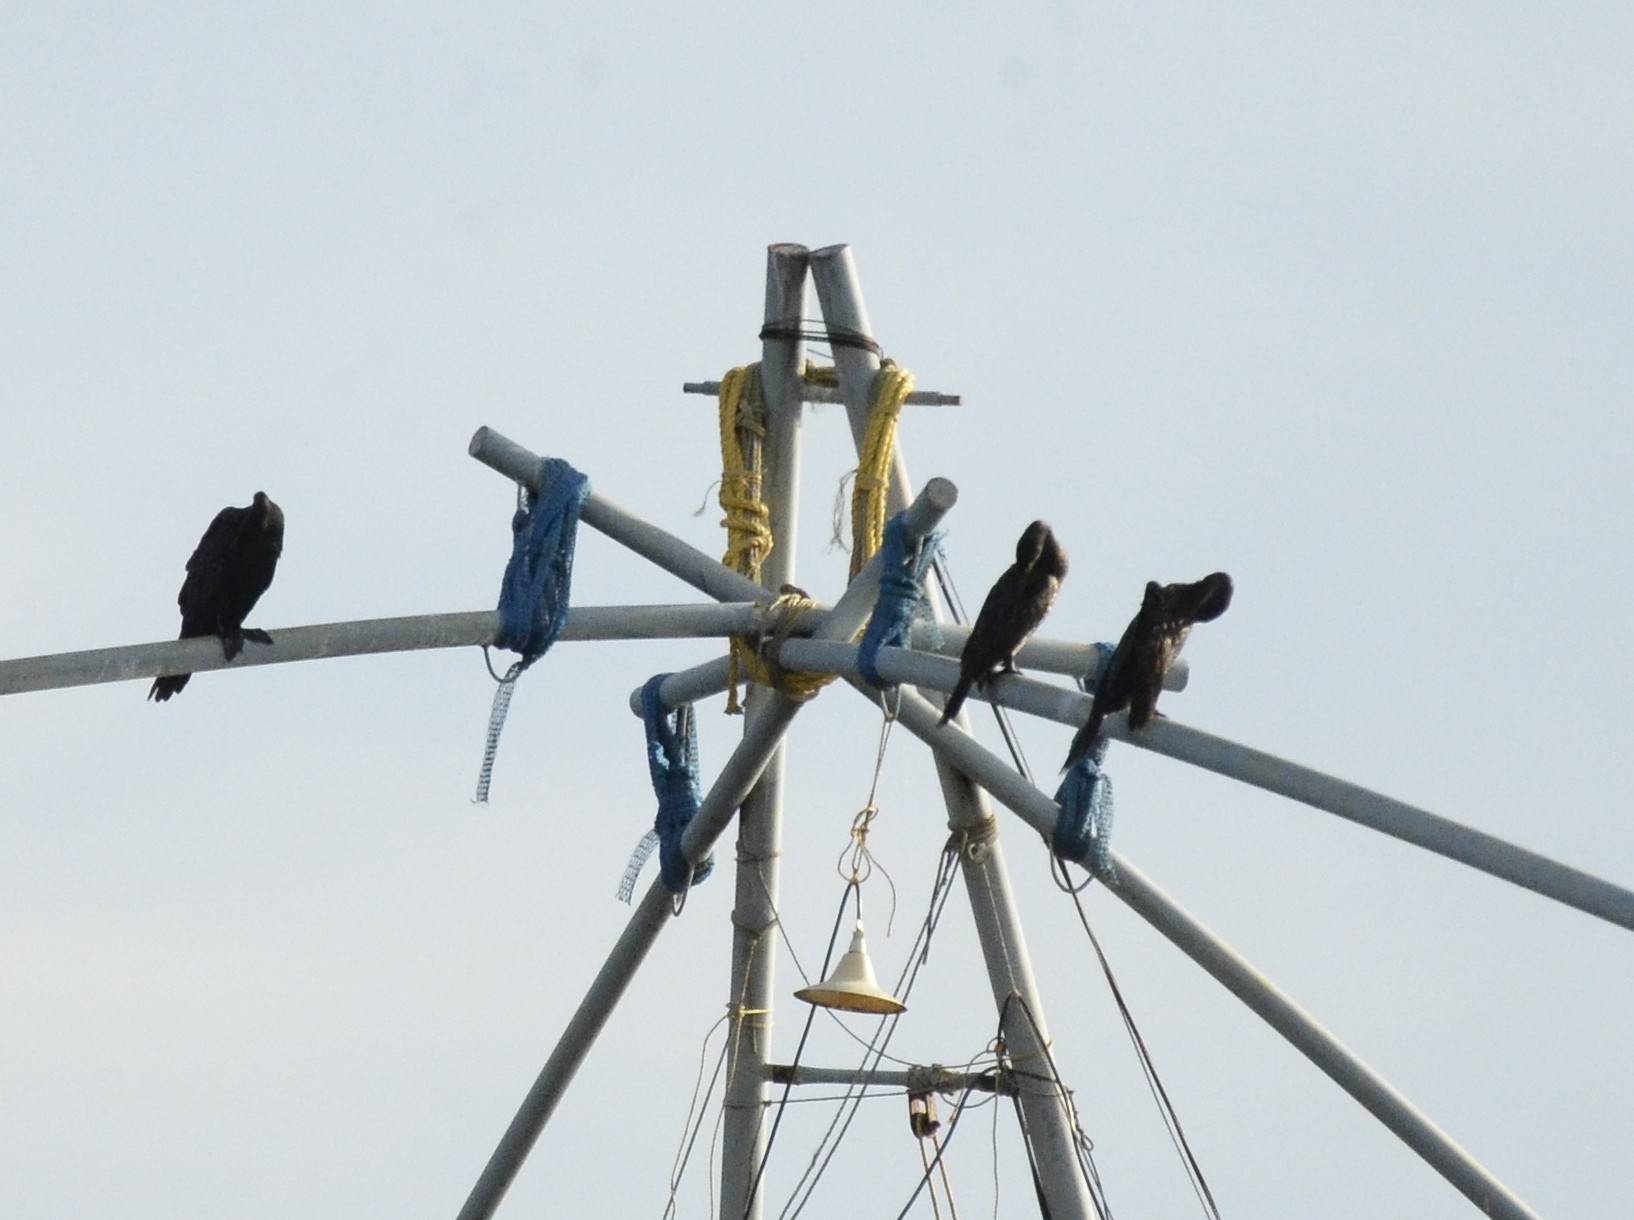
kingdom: Animalia
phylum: Chordata
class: Aves
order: Suliformes
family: Phalacrocoracidae
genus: Microcarbo
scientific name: Microcarbo niger
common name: Little cormorant
